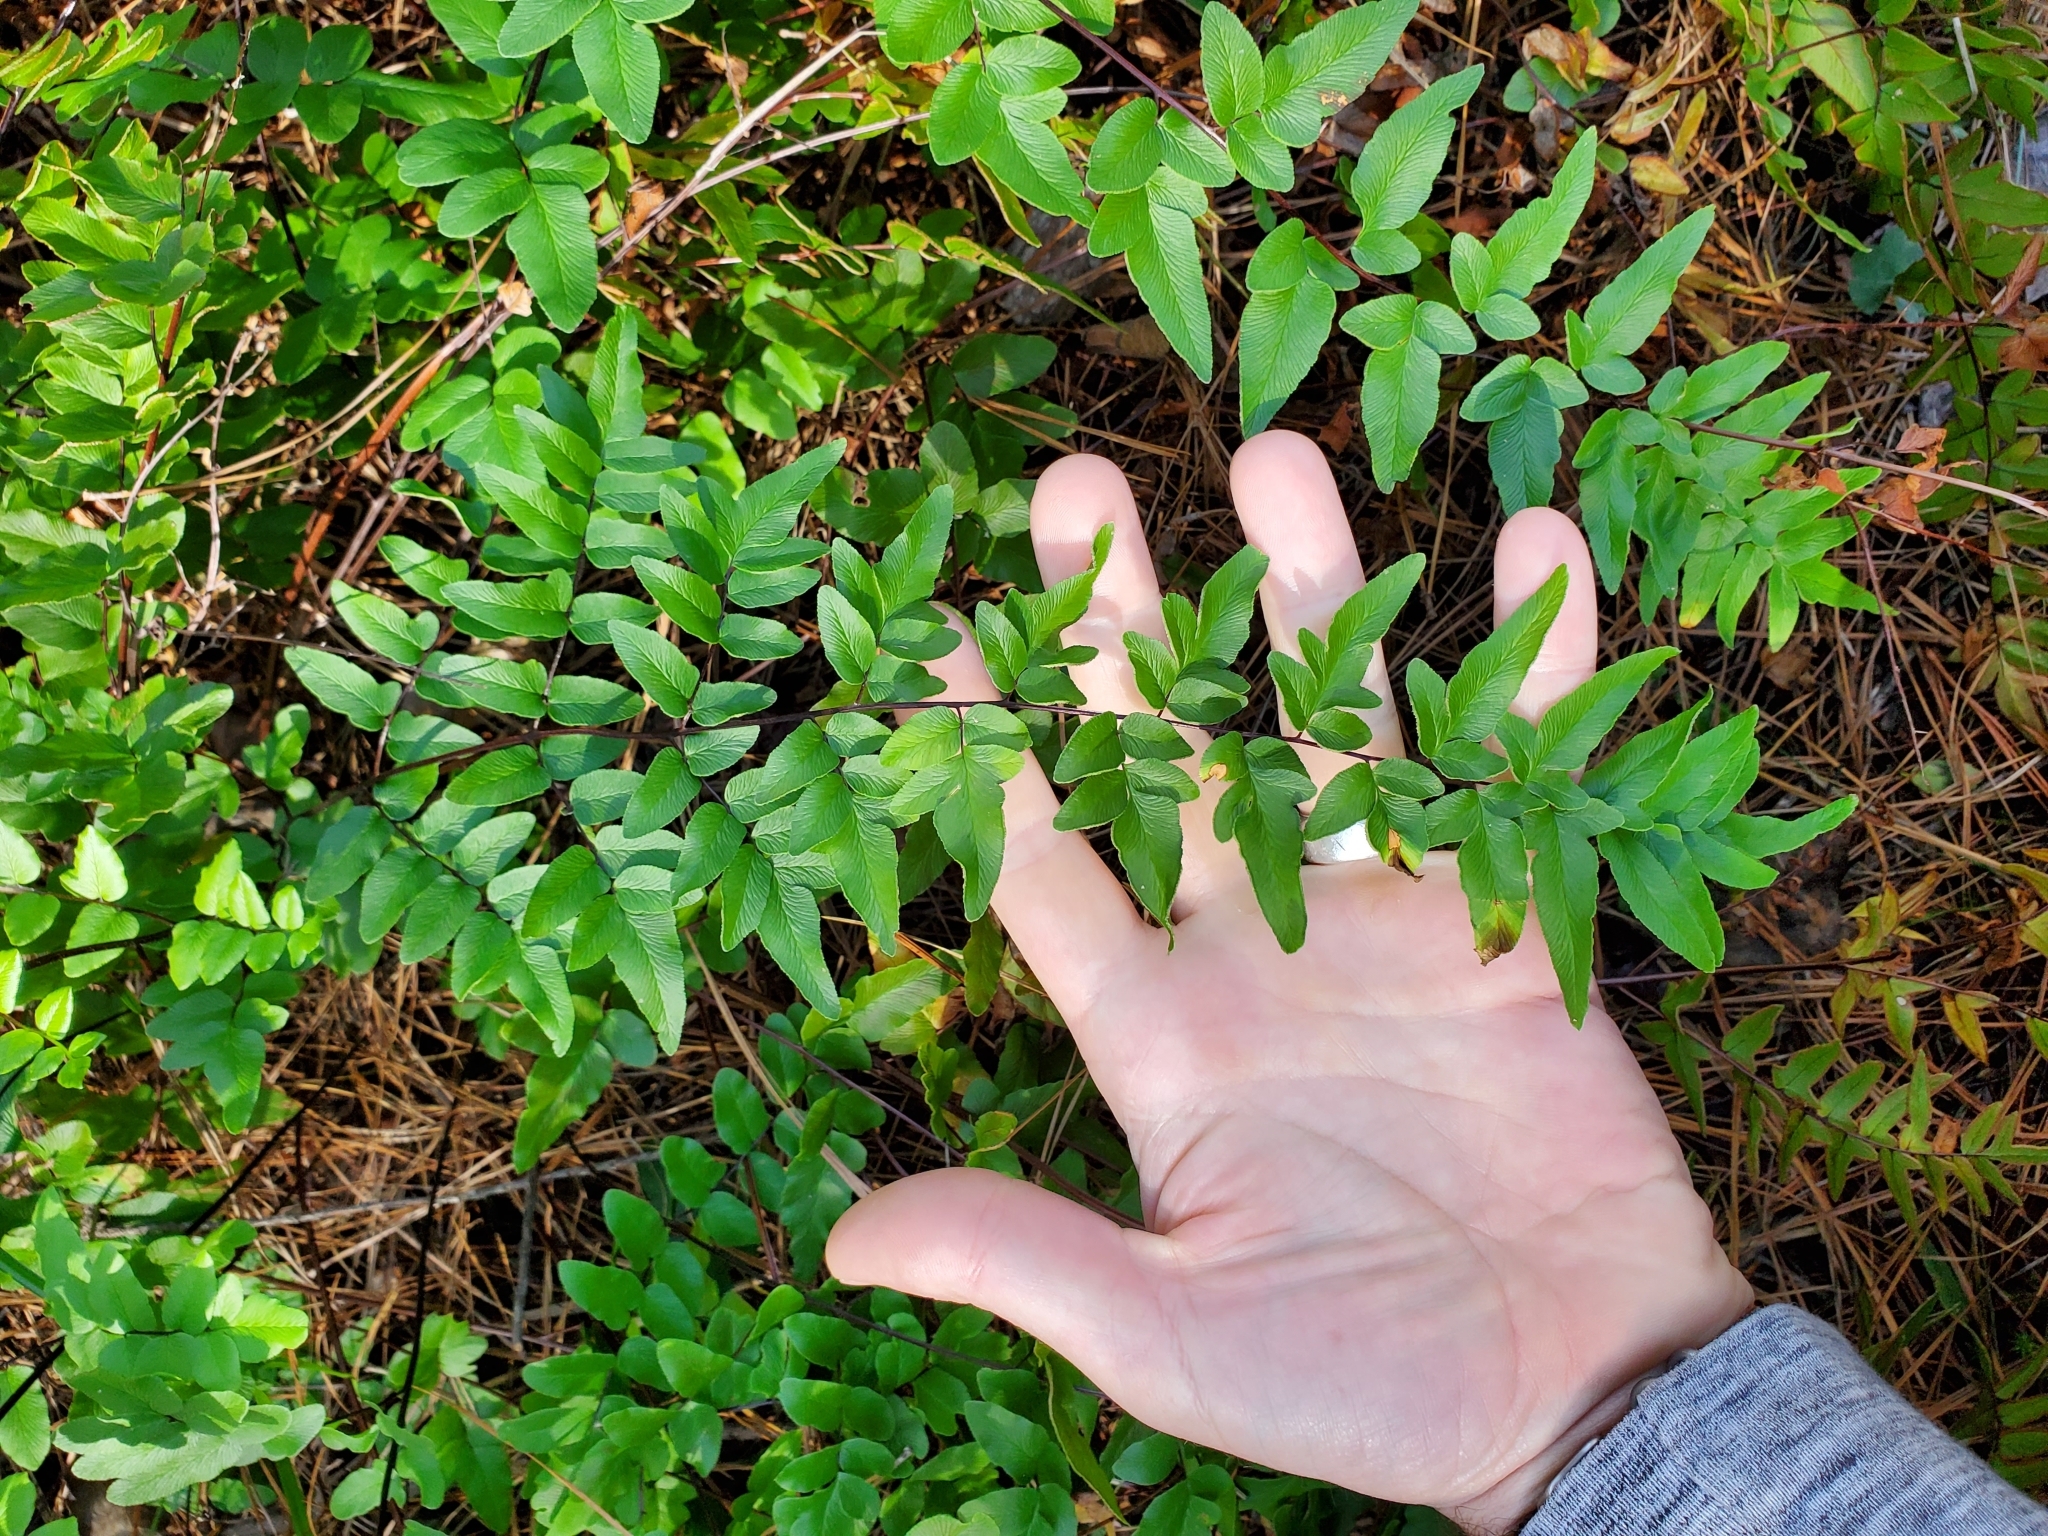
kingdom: Plantae
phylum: Tracheophyta
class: Polypodiopsida
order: Polypodiales
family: Pteridaceae
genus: Cheilanthes
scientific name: Cheilanthes viridis
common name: Green cliffbrake
